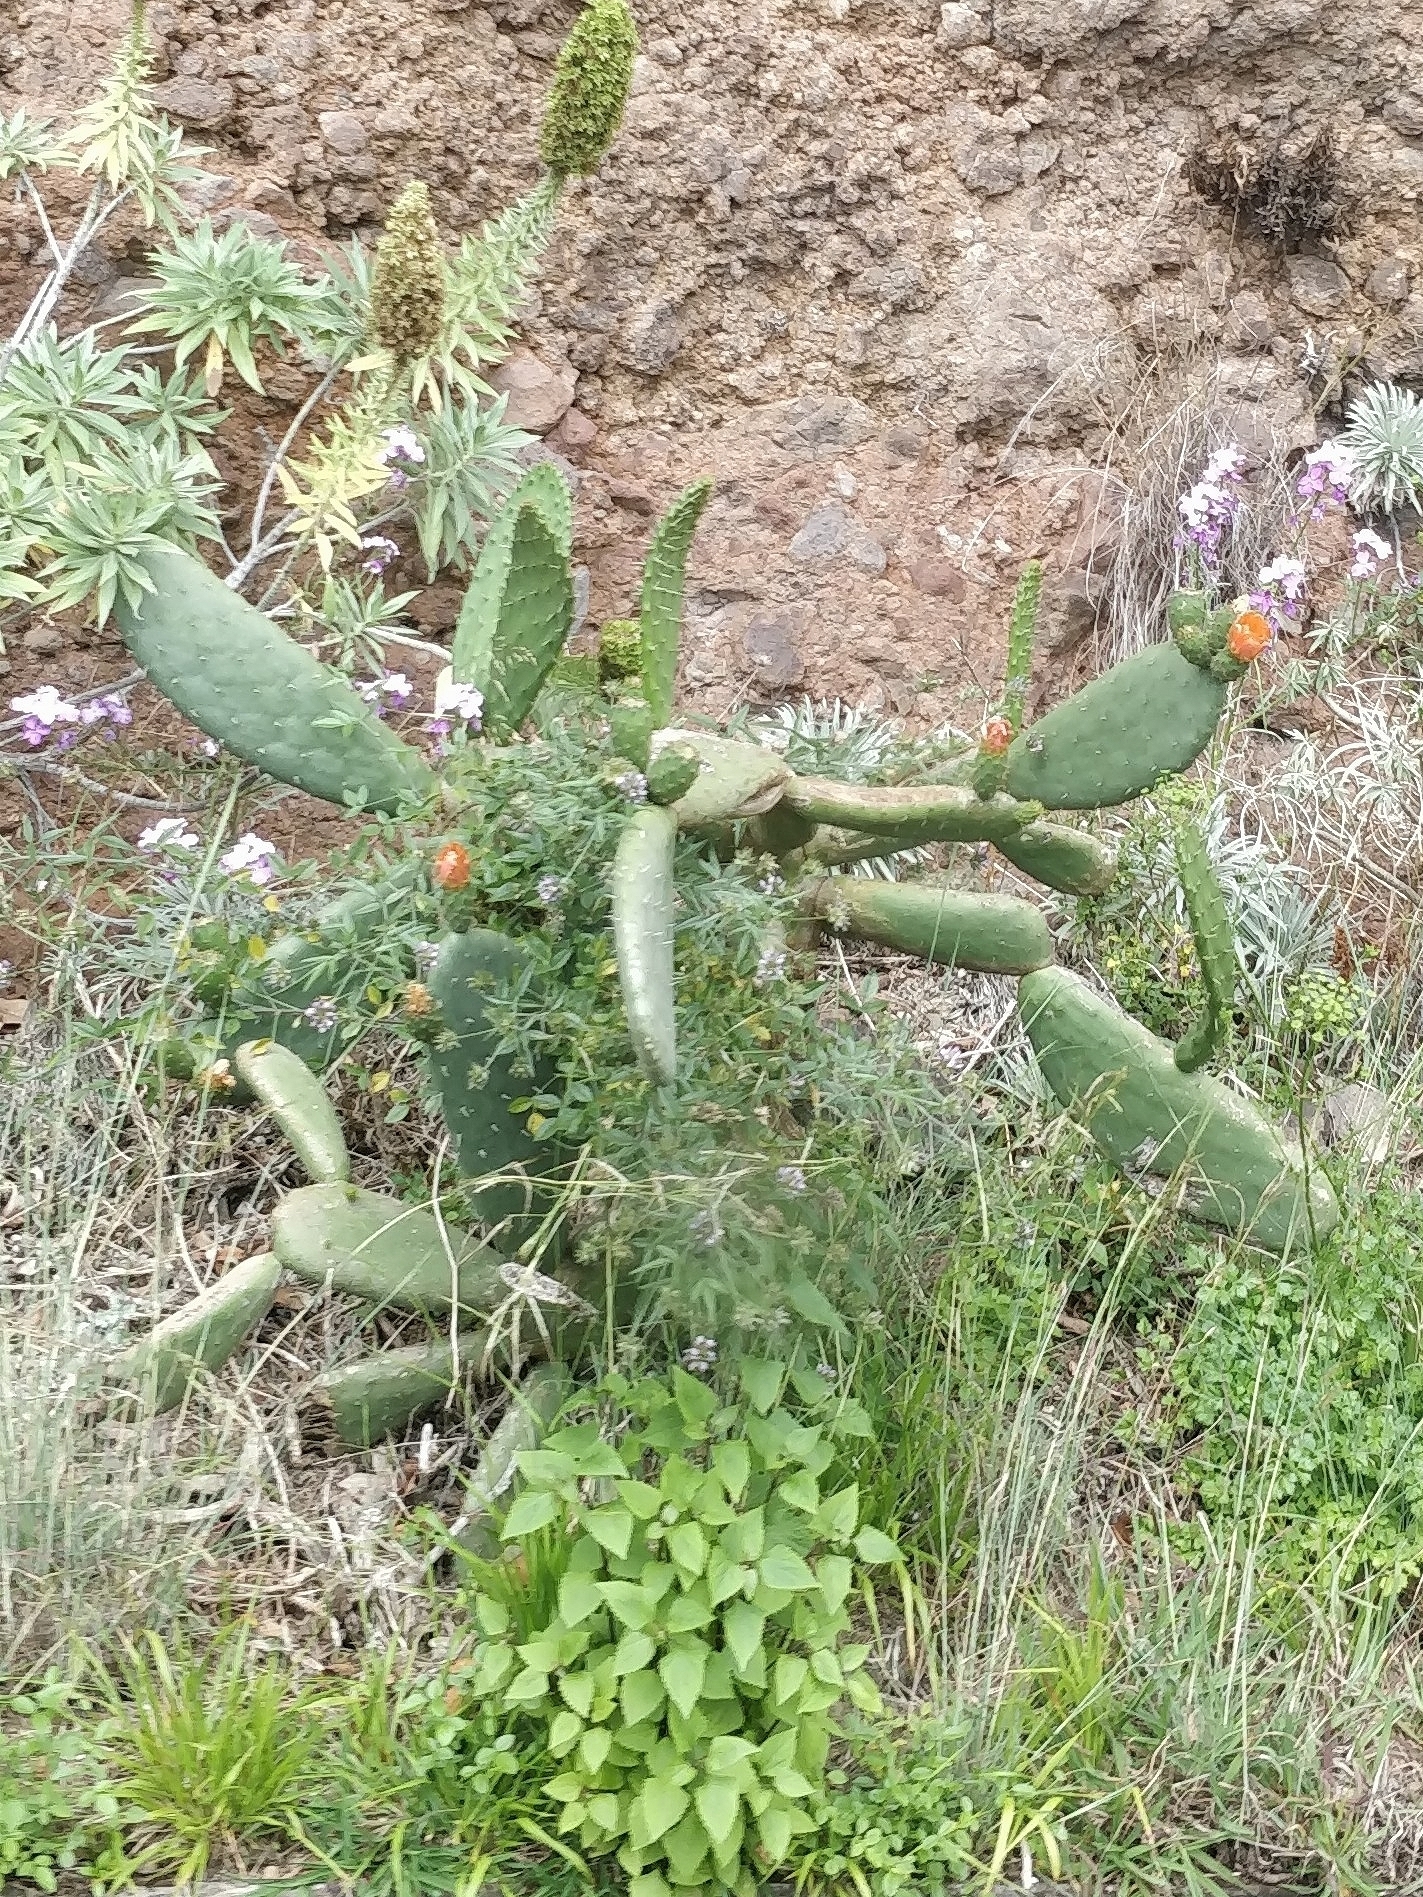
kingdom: Plantae
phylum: Tracheophyta
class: Magnoliopsida
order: Caryophyllales
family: Cactaceae
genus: Opuntia
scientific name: Opuntia ficus-indica
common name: Barbary fig
